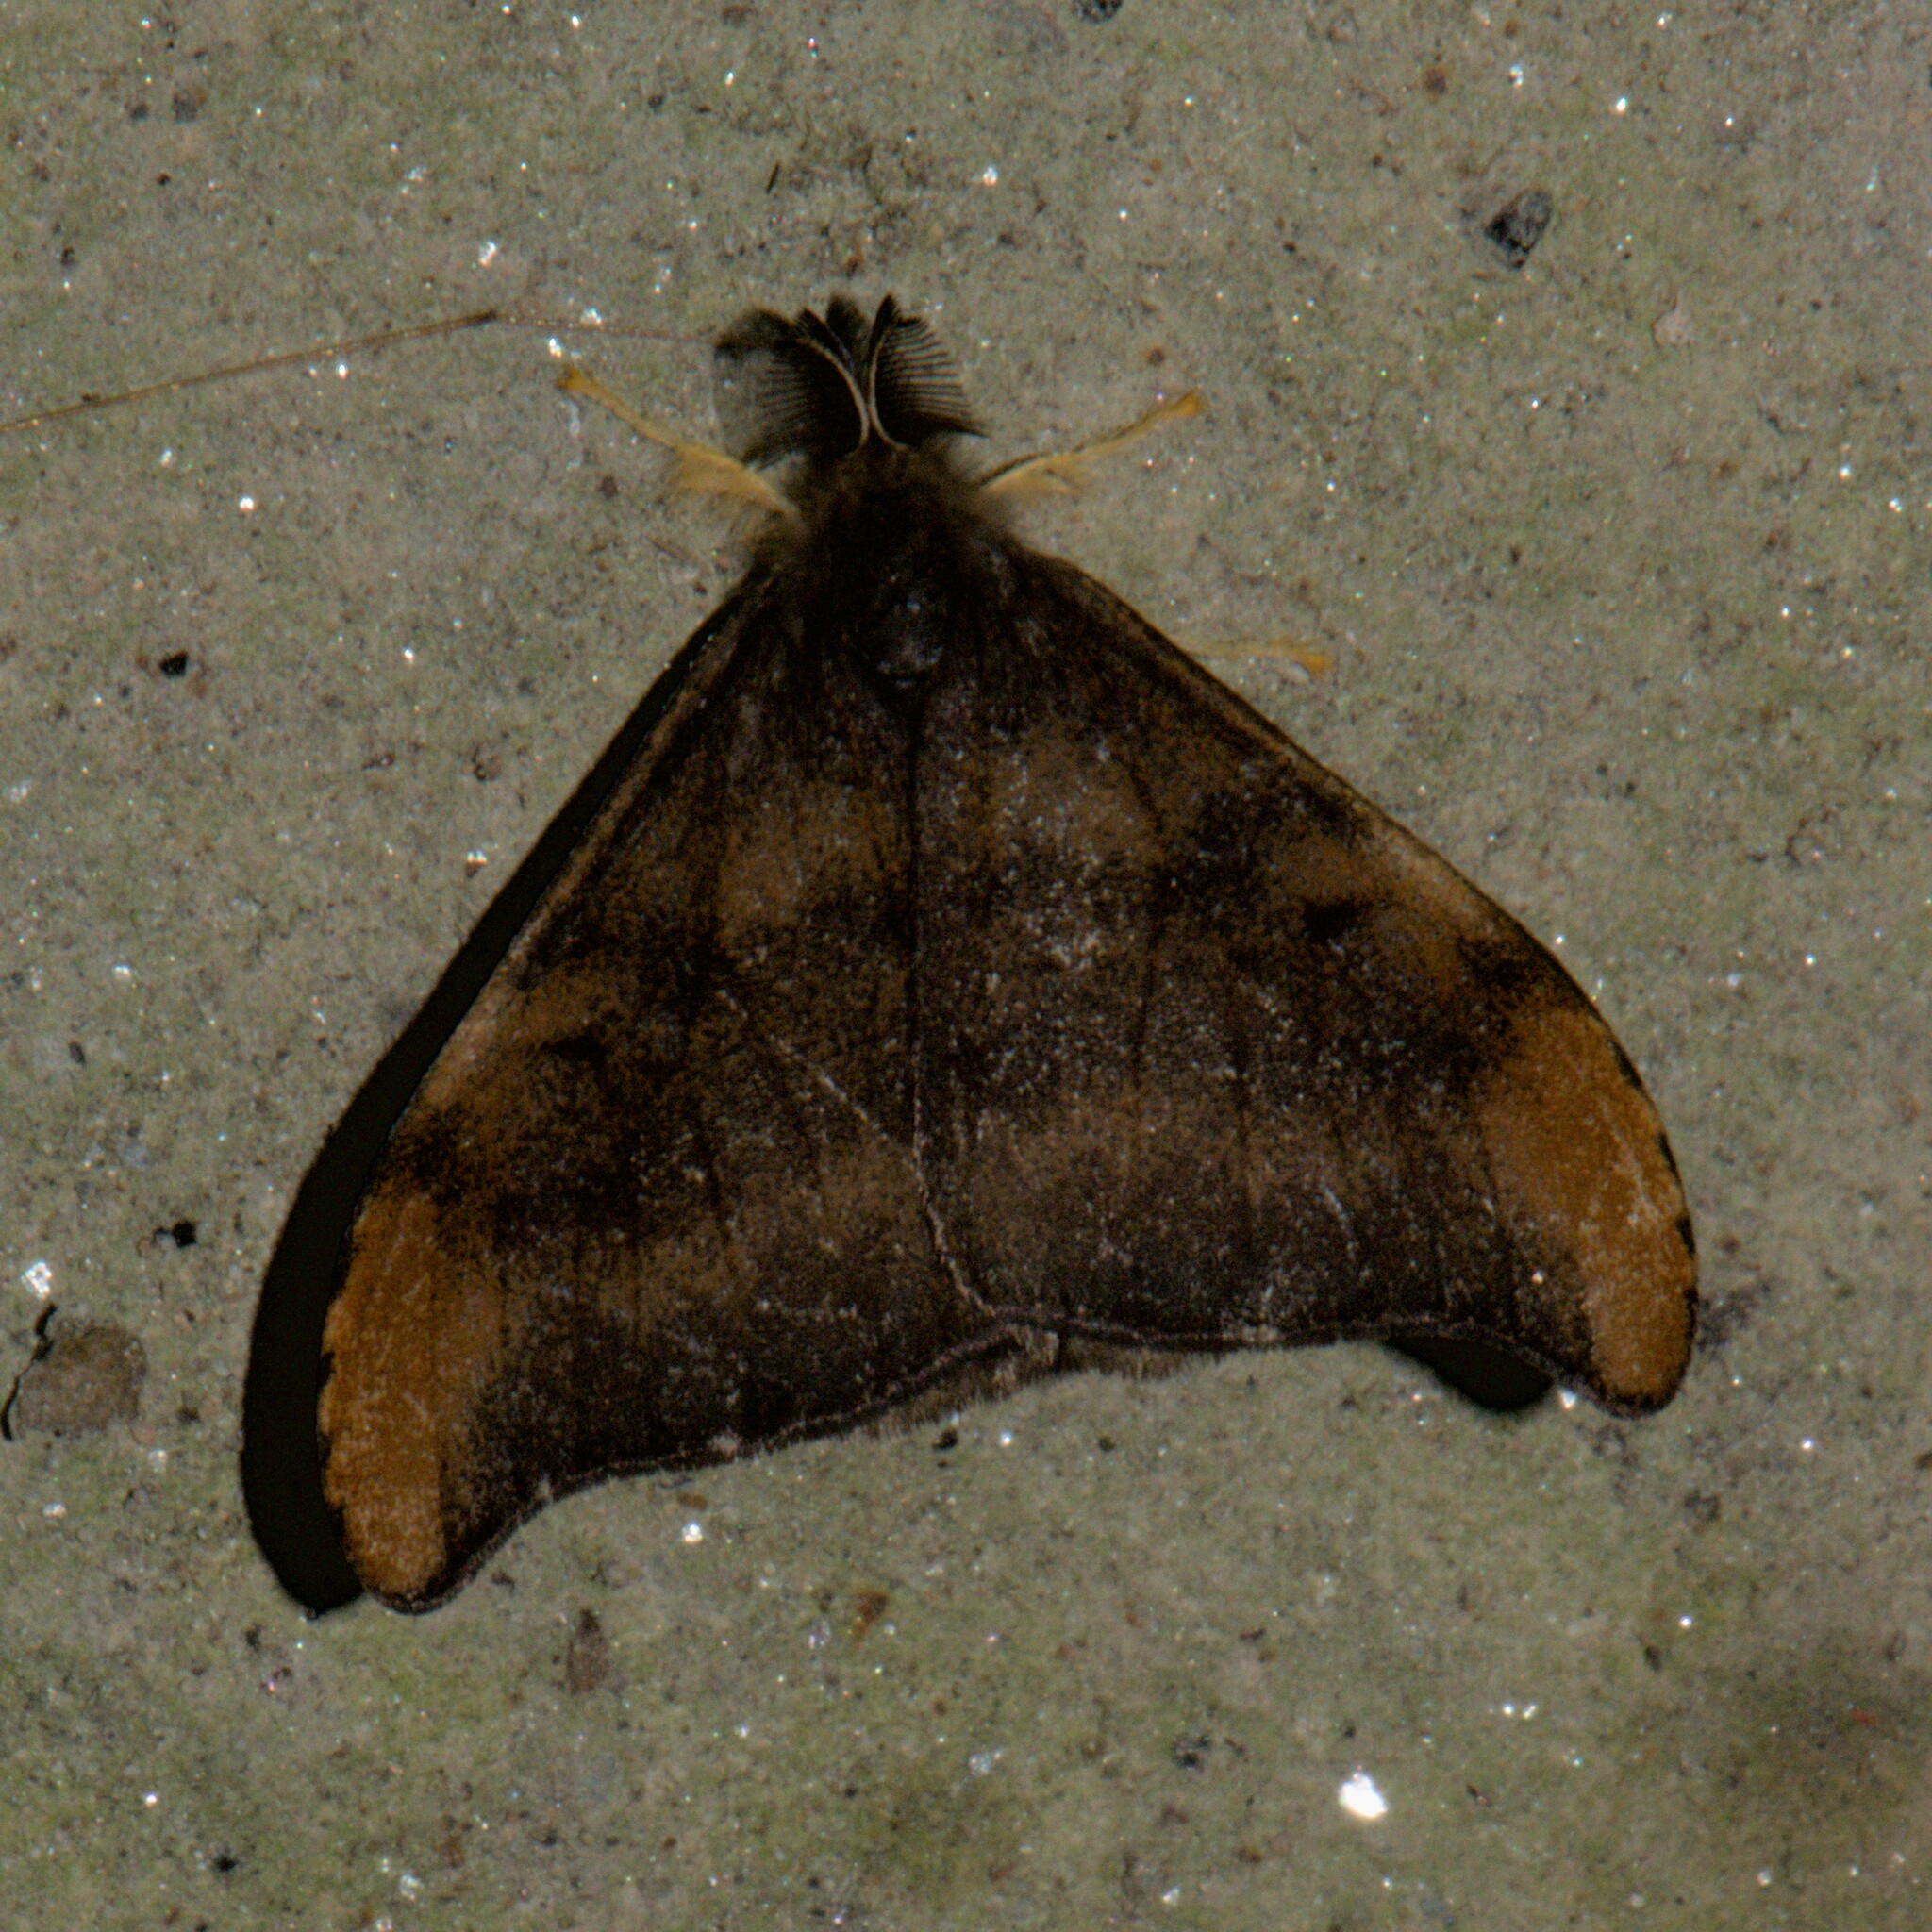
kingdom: Animalia
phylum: Arthropoda
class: Insecta
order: Lepidoptera
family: Erebidae
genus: Rhypotoses
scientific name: Rhypotoses
